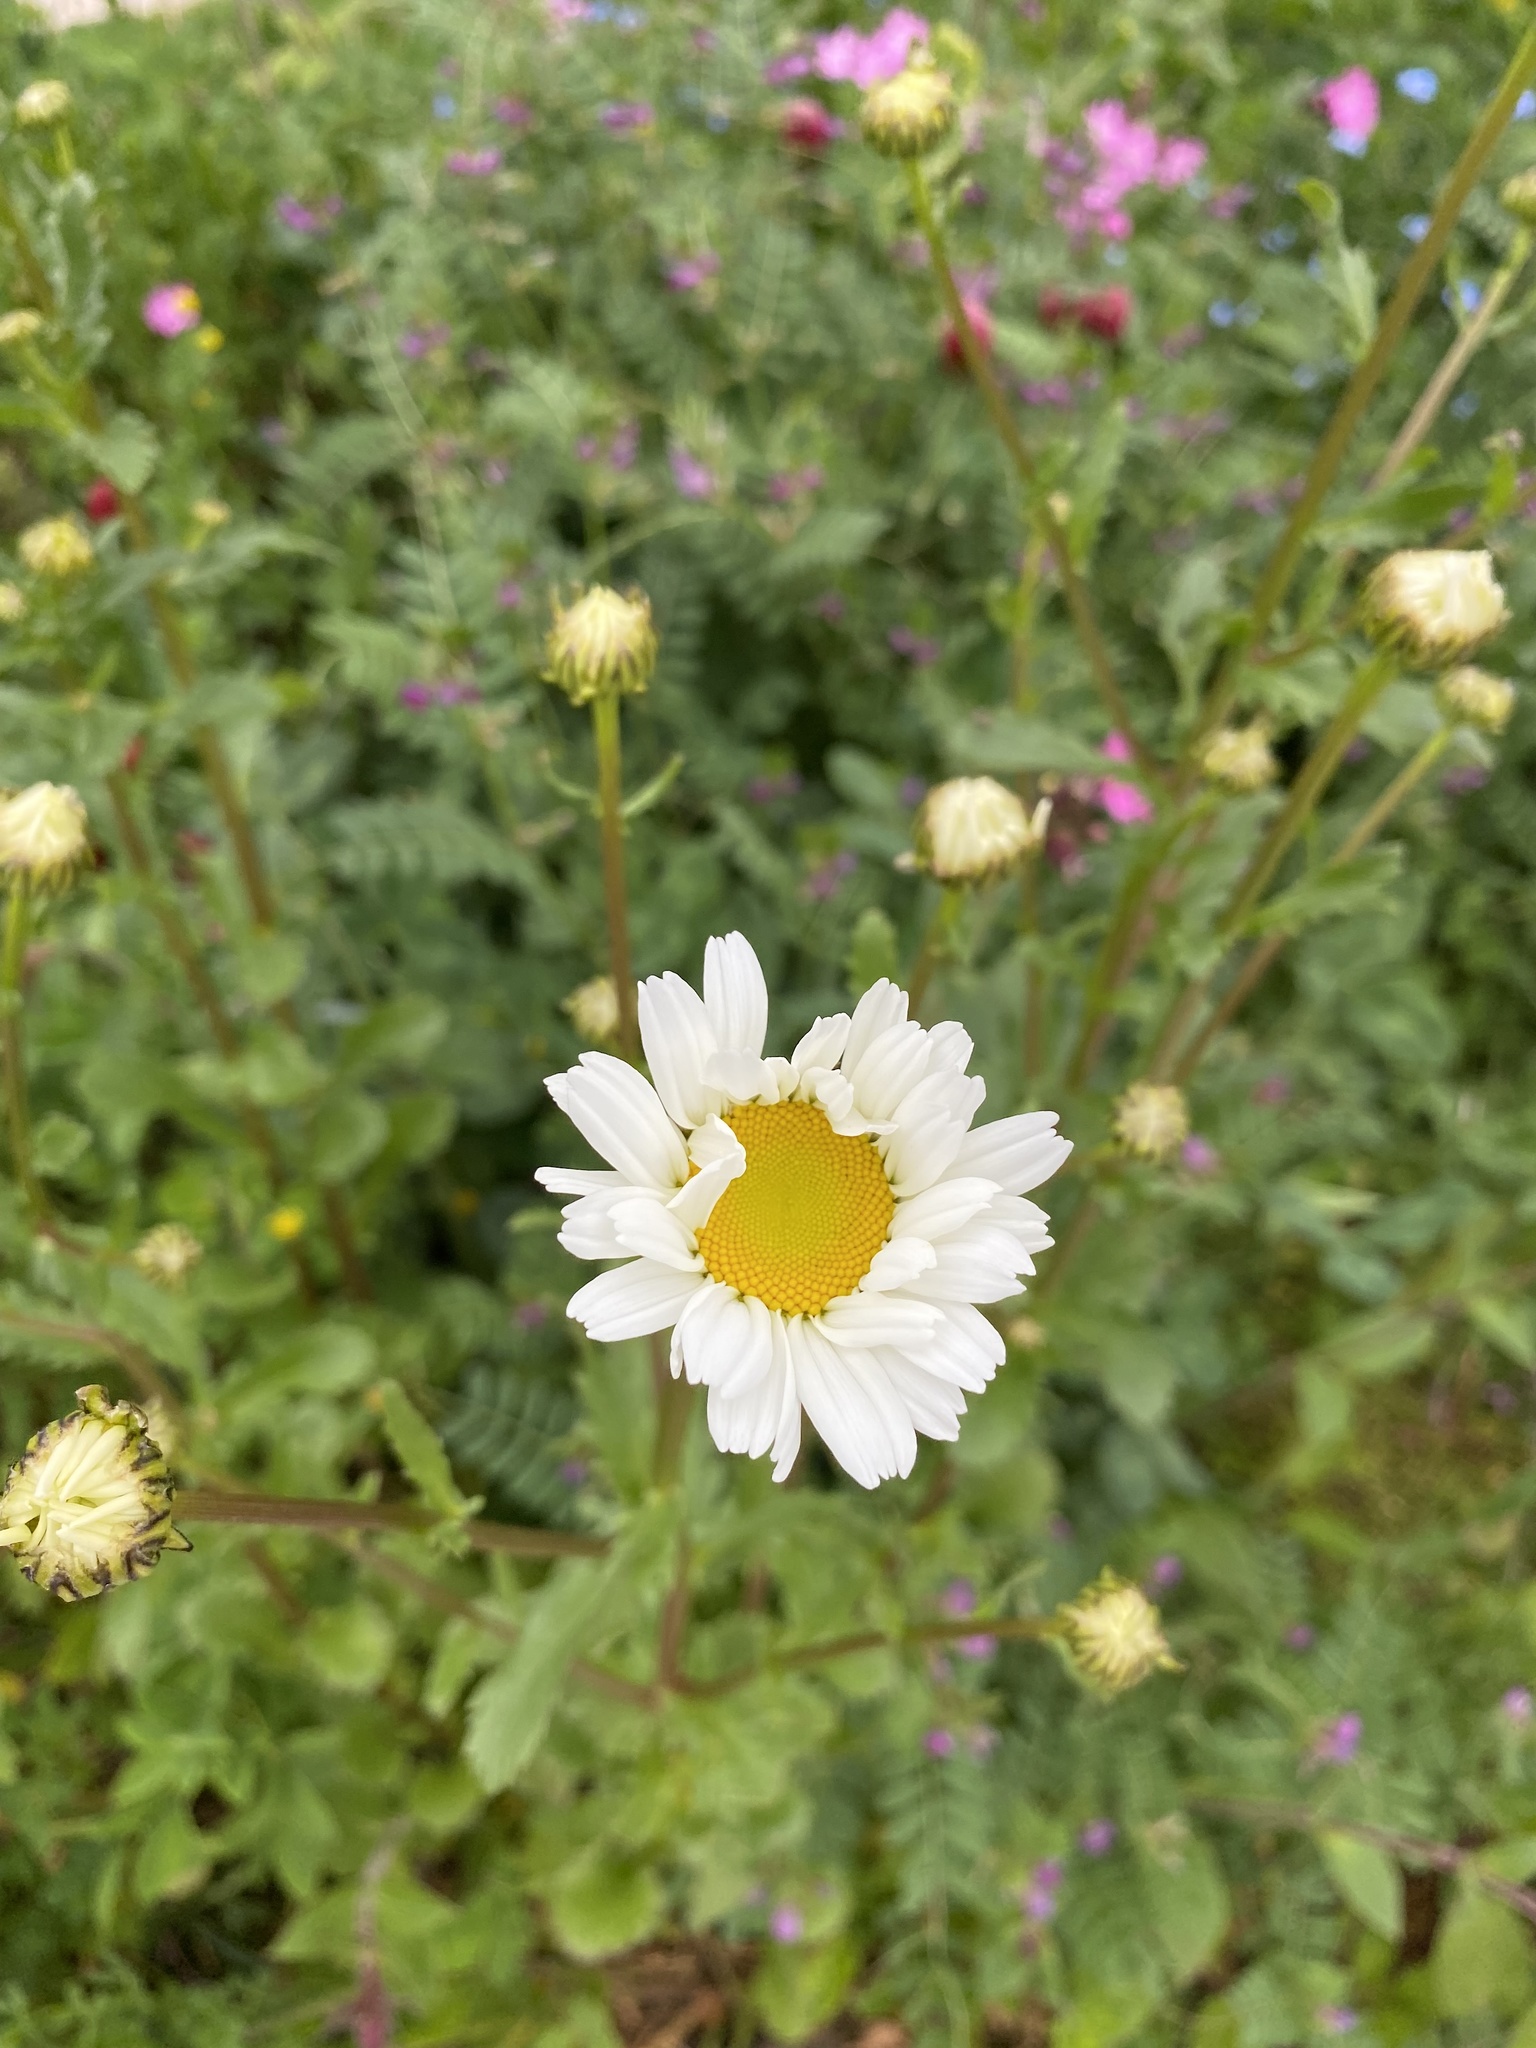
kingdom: Plantae
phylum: Tracheophyta
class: Magnoliopsida
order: Asterales
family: Asteraceae
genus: Leucanthemum
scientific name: Leucanthemum vulgare
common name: Oxeye daisy
